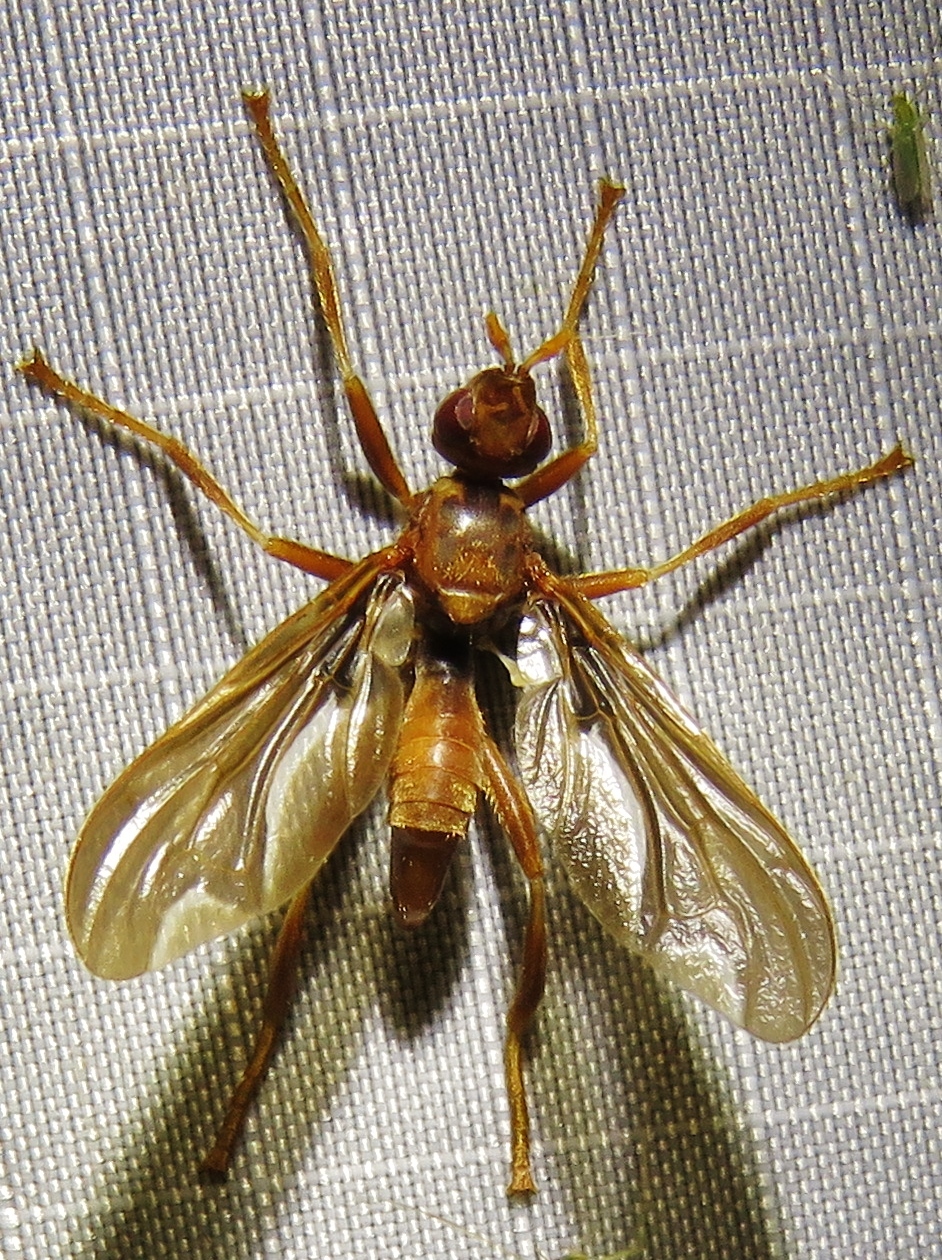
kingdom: Animalia
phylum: Arthropoda
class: Insecta
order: Diptera
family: Pyrgotidae
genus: Pyrgota
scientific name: Pyrgota undata
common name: Waved light fly
